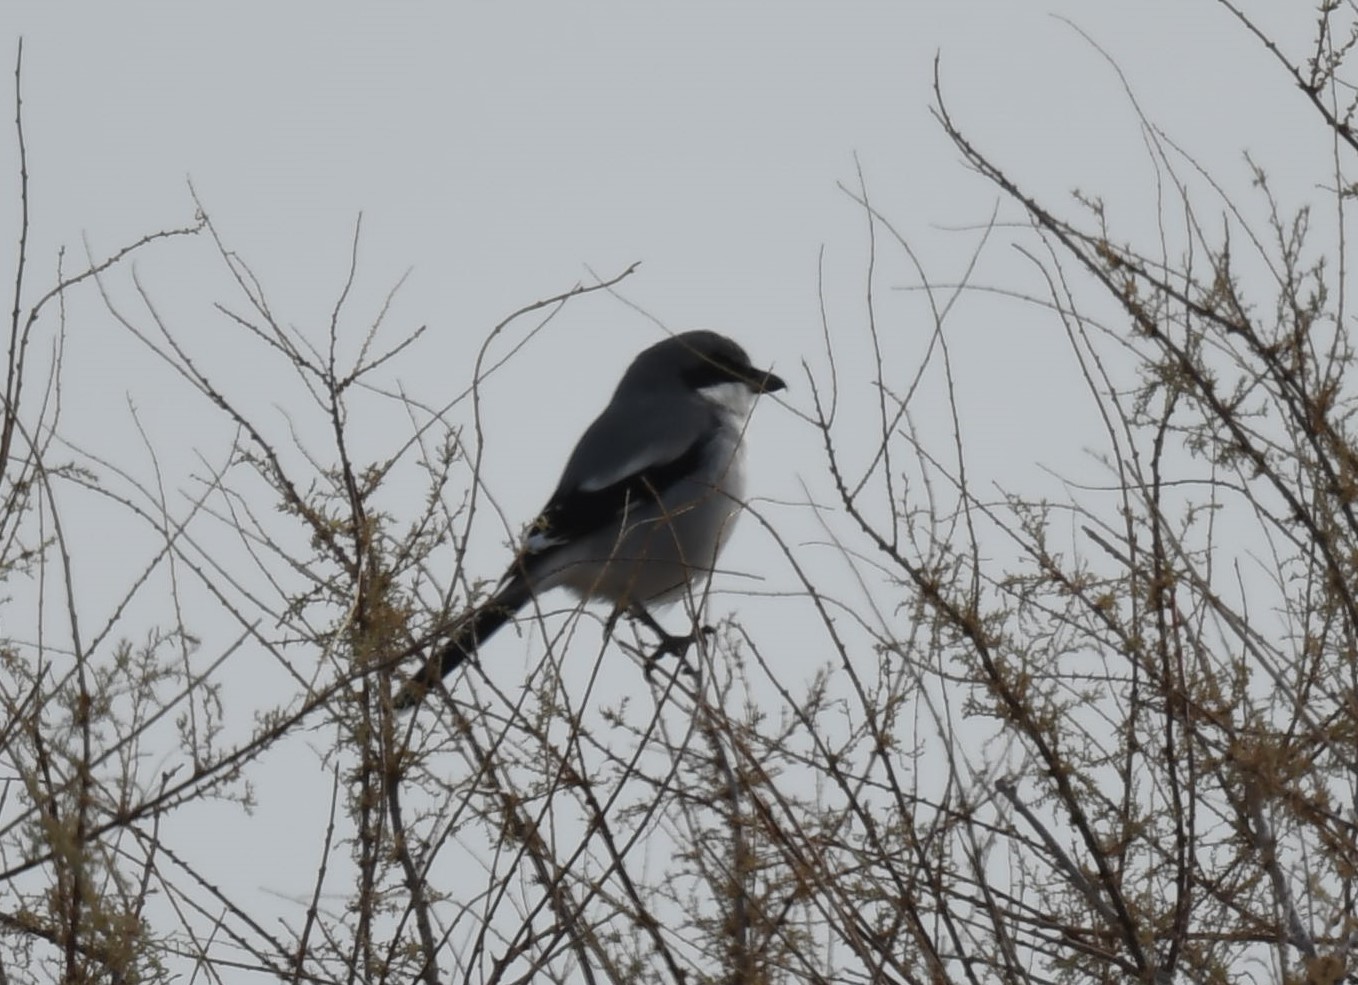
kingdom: Animalia
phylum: Chordata
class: Aves
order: Passeriformes
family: Laniidae
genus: Lanius
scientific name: Lanius ludovicianus
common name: Loggerhead shrike
